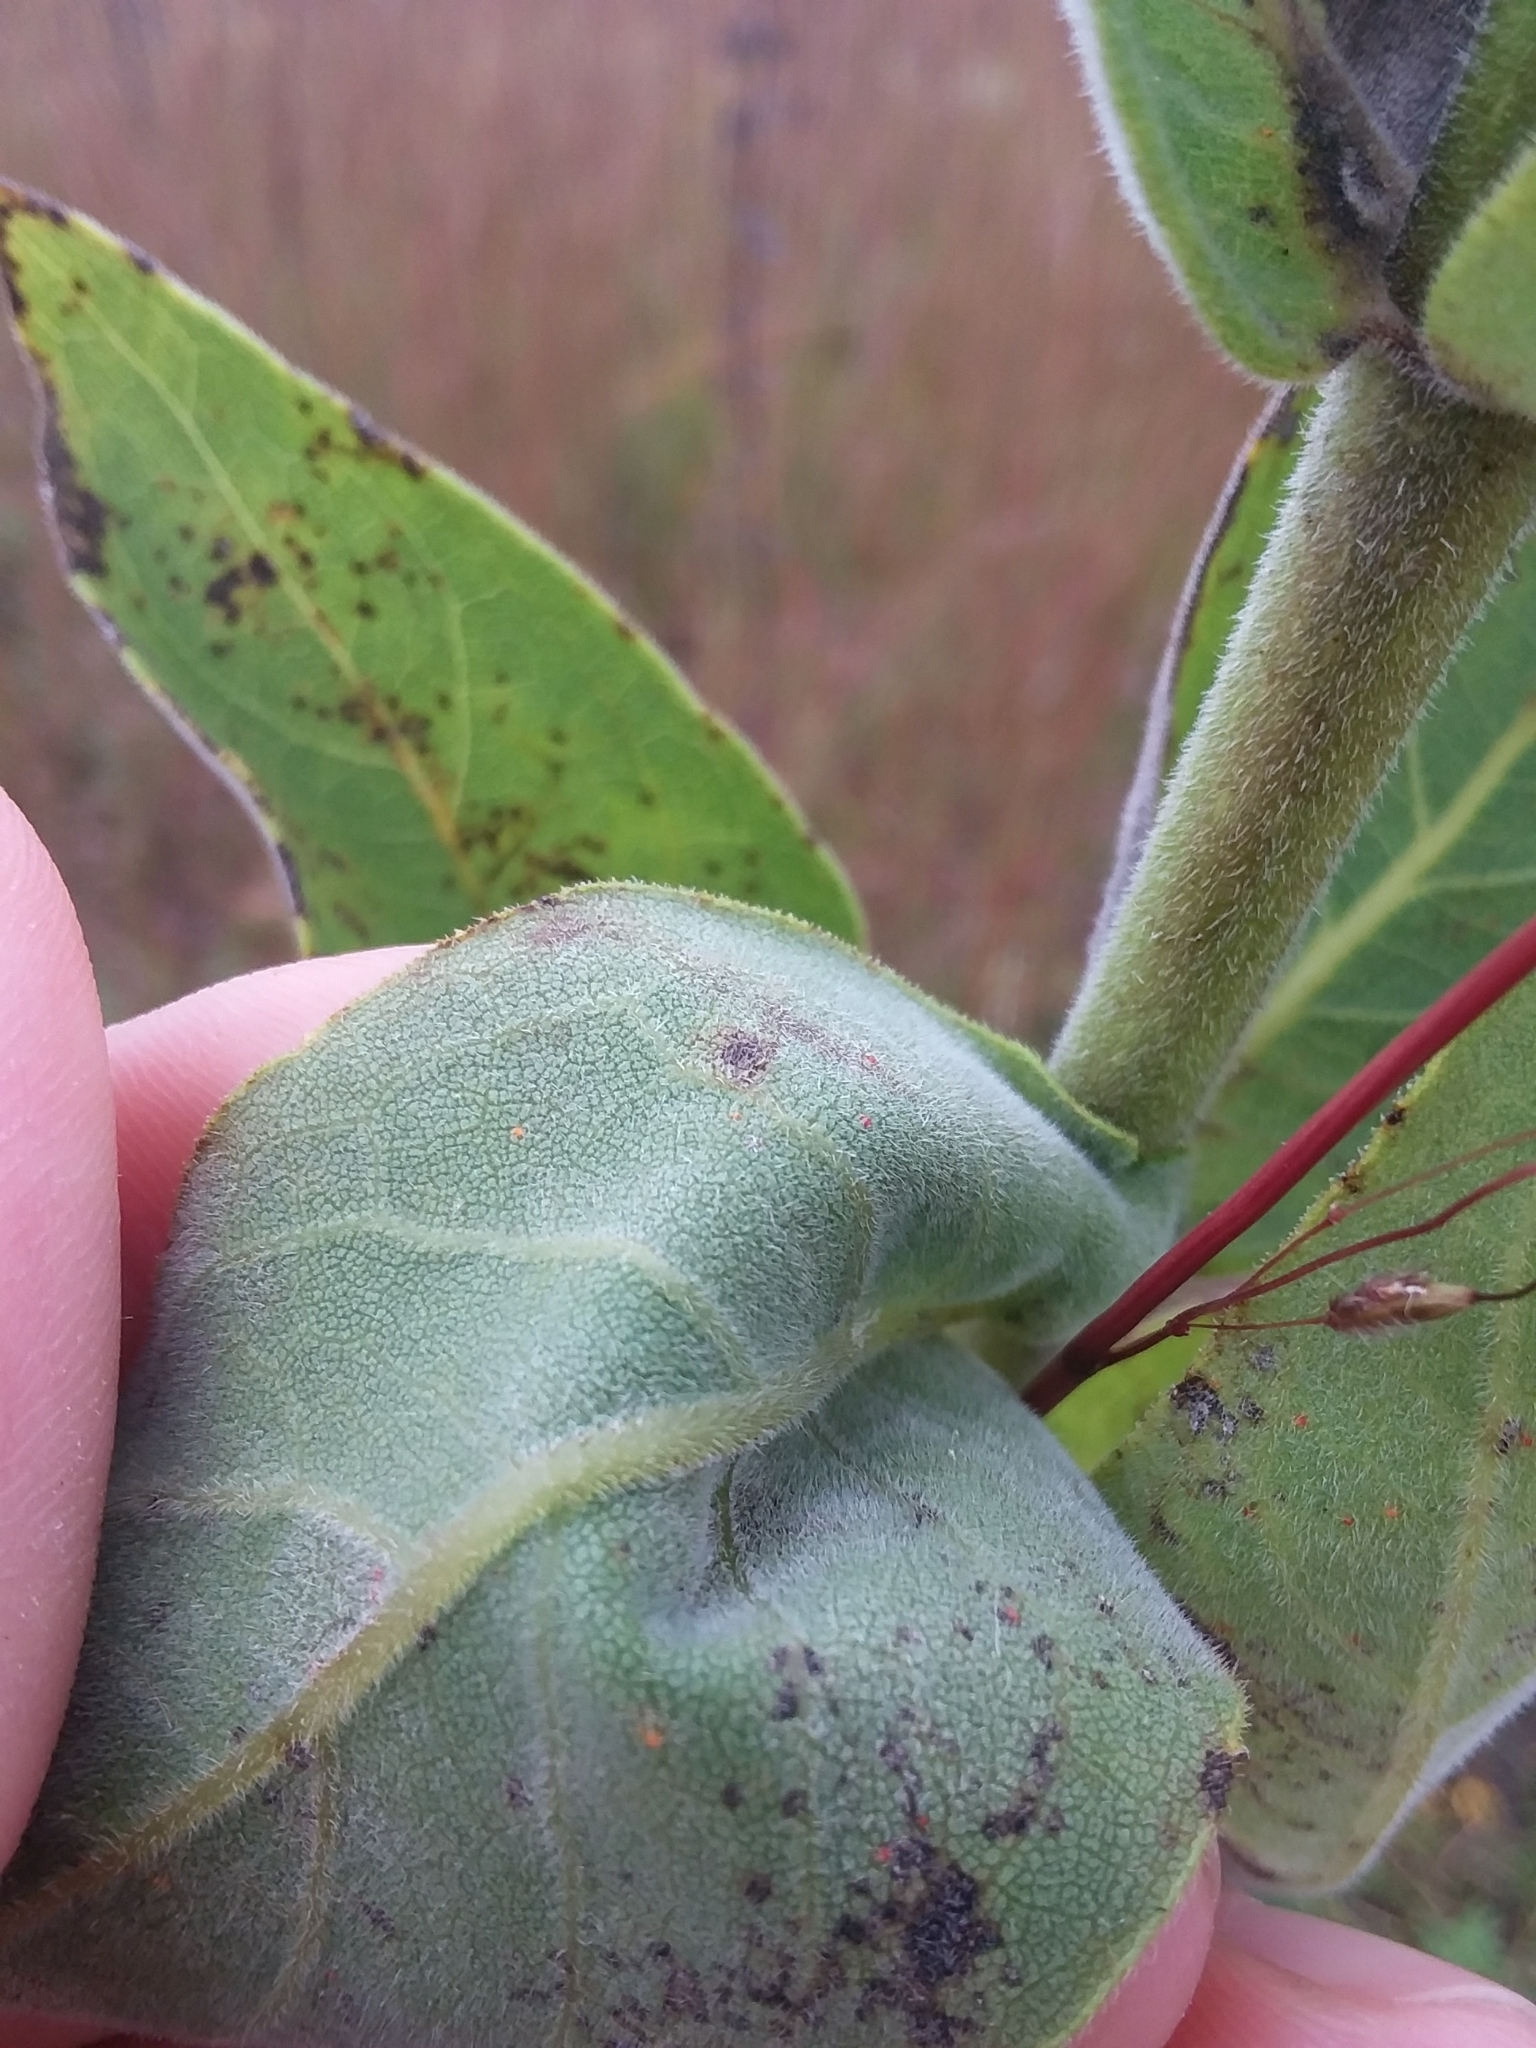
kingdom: Plantae
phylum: Tracheophyta
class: Magnoliopsida
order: Asterales
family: Asteraceae
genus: Silphium
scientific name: Silphium integrifolium
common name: Whole-leaf rosinweed
